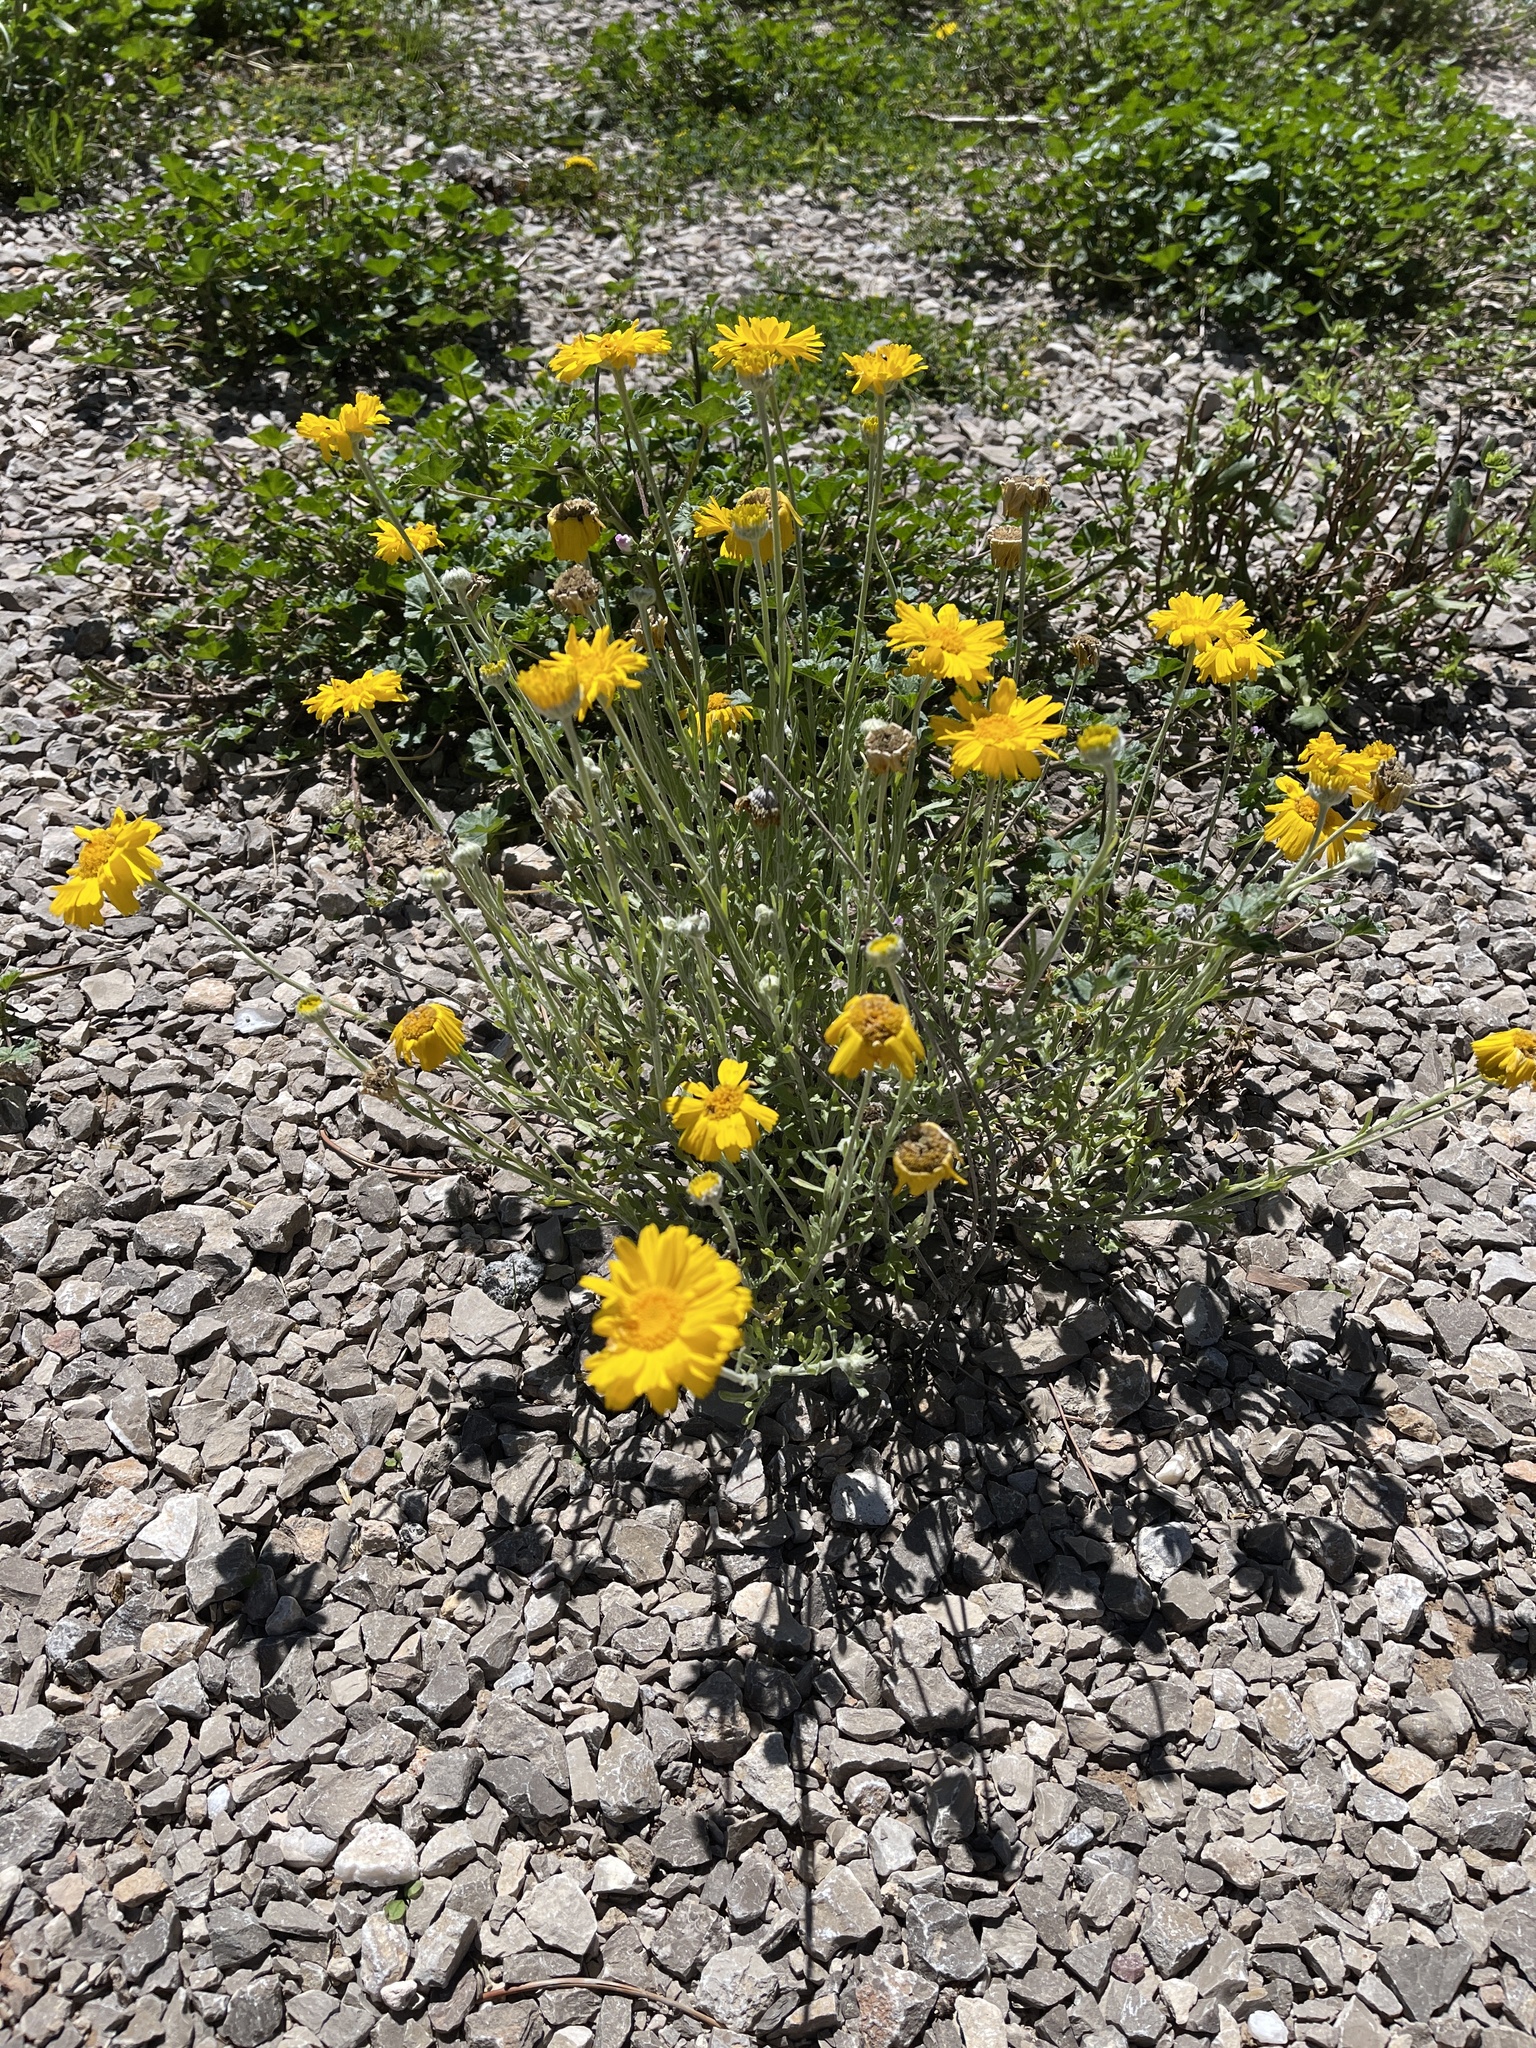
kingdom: Plantae
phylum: Tracheophyta
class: Magnoliopsida
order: Asterales
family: Asteraceae
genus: Baileya
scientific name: Baileya multiradiata
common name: Desert-marigold
